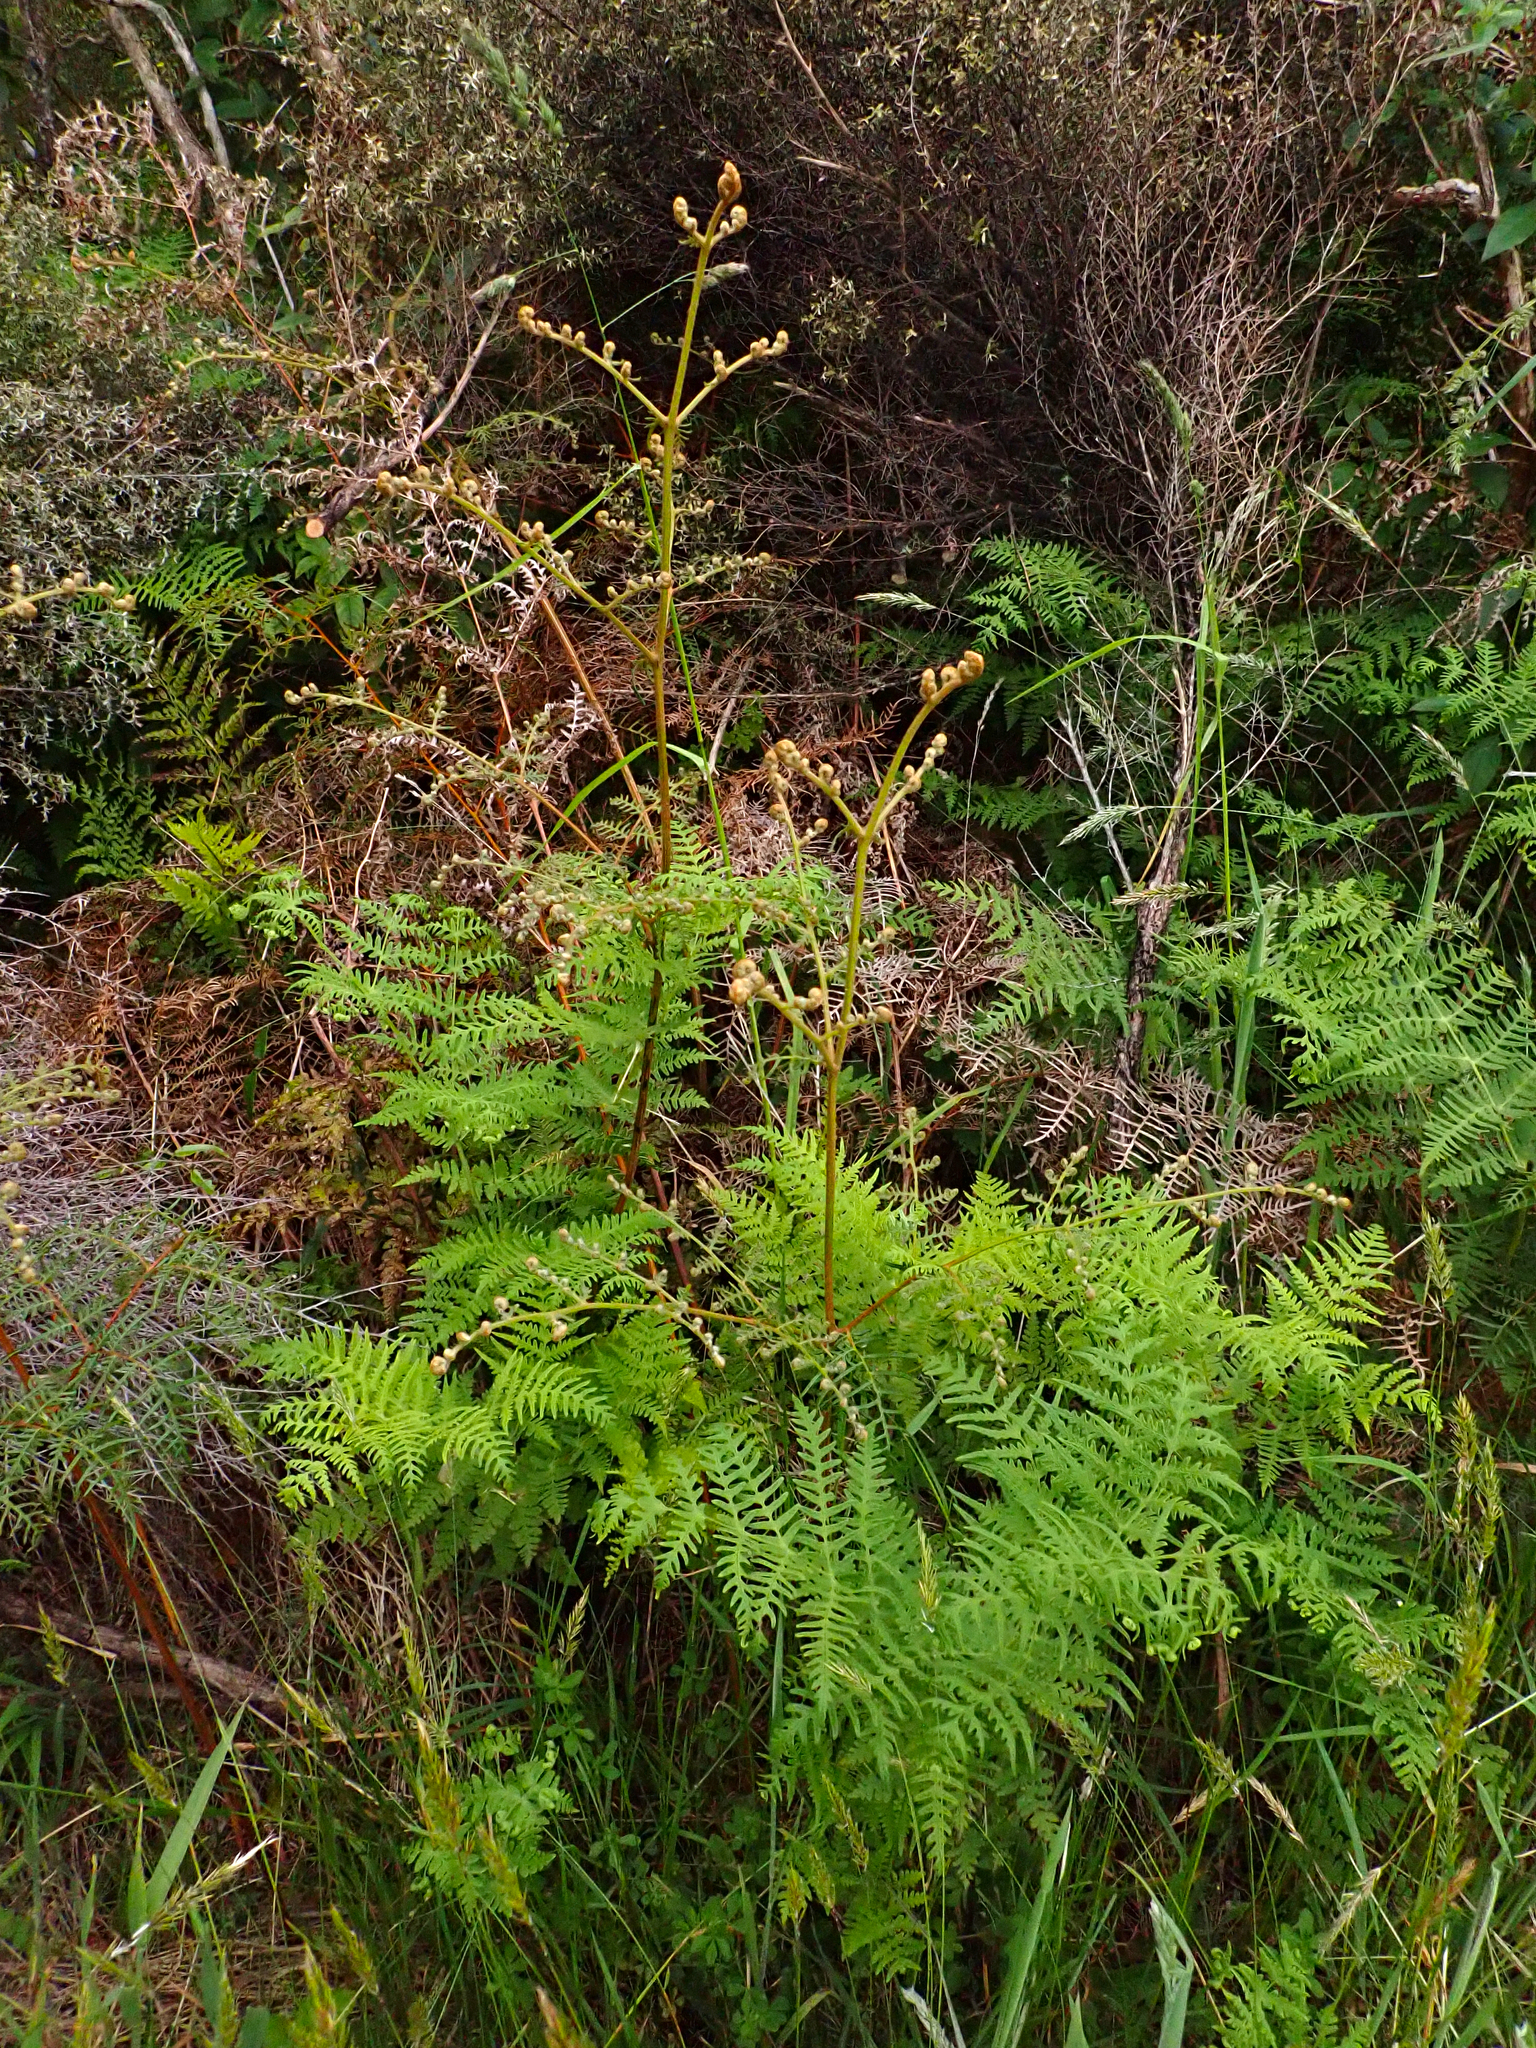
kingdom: Plantae
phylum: Tracheophyta
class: Polypodiopsida
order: Polypodiales
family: Dennstaedtiaceae
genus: Histiopteris
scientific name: Histiopteris incisa
